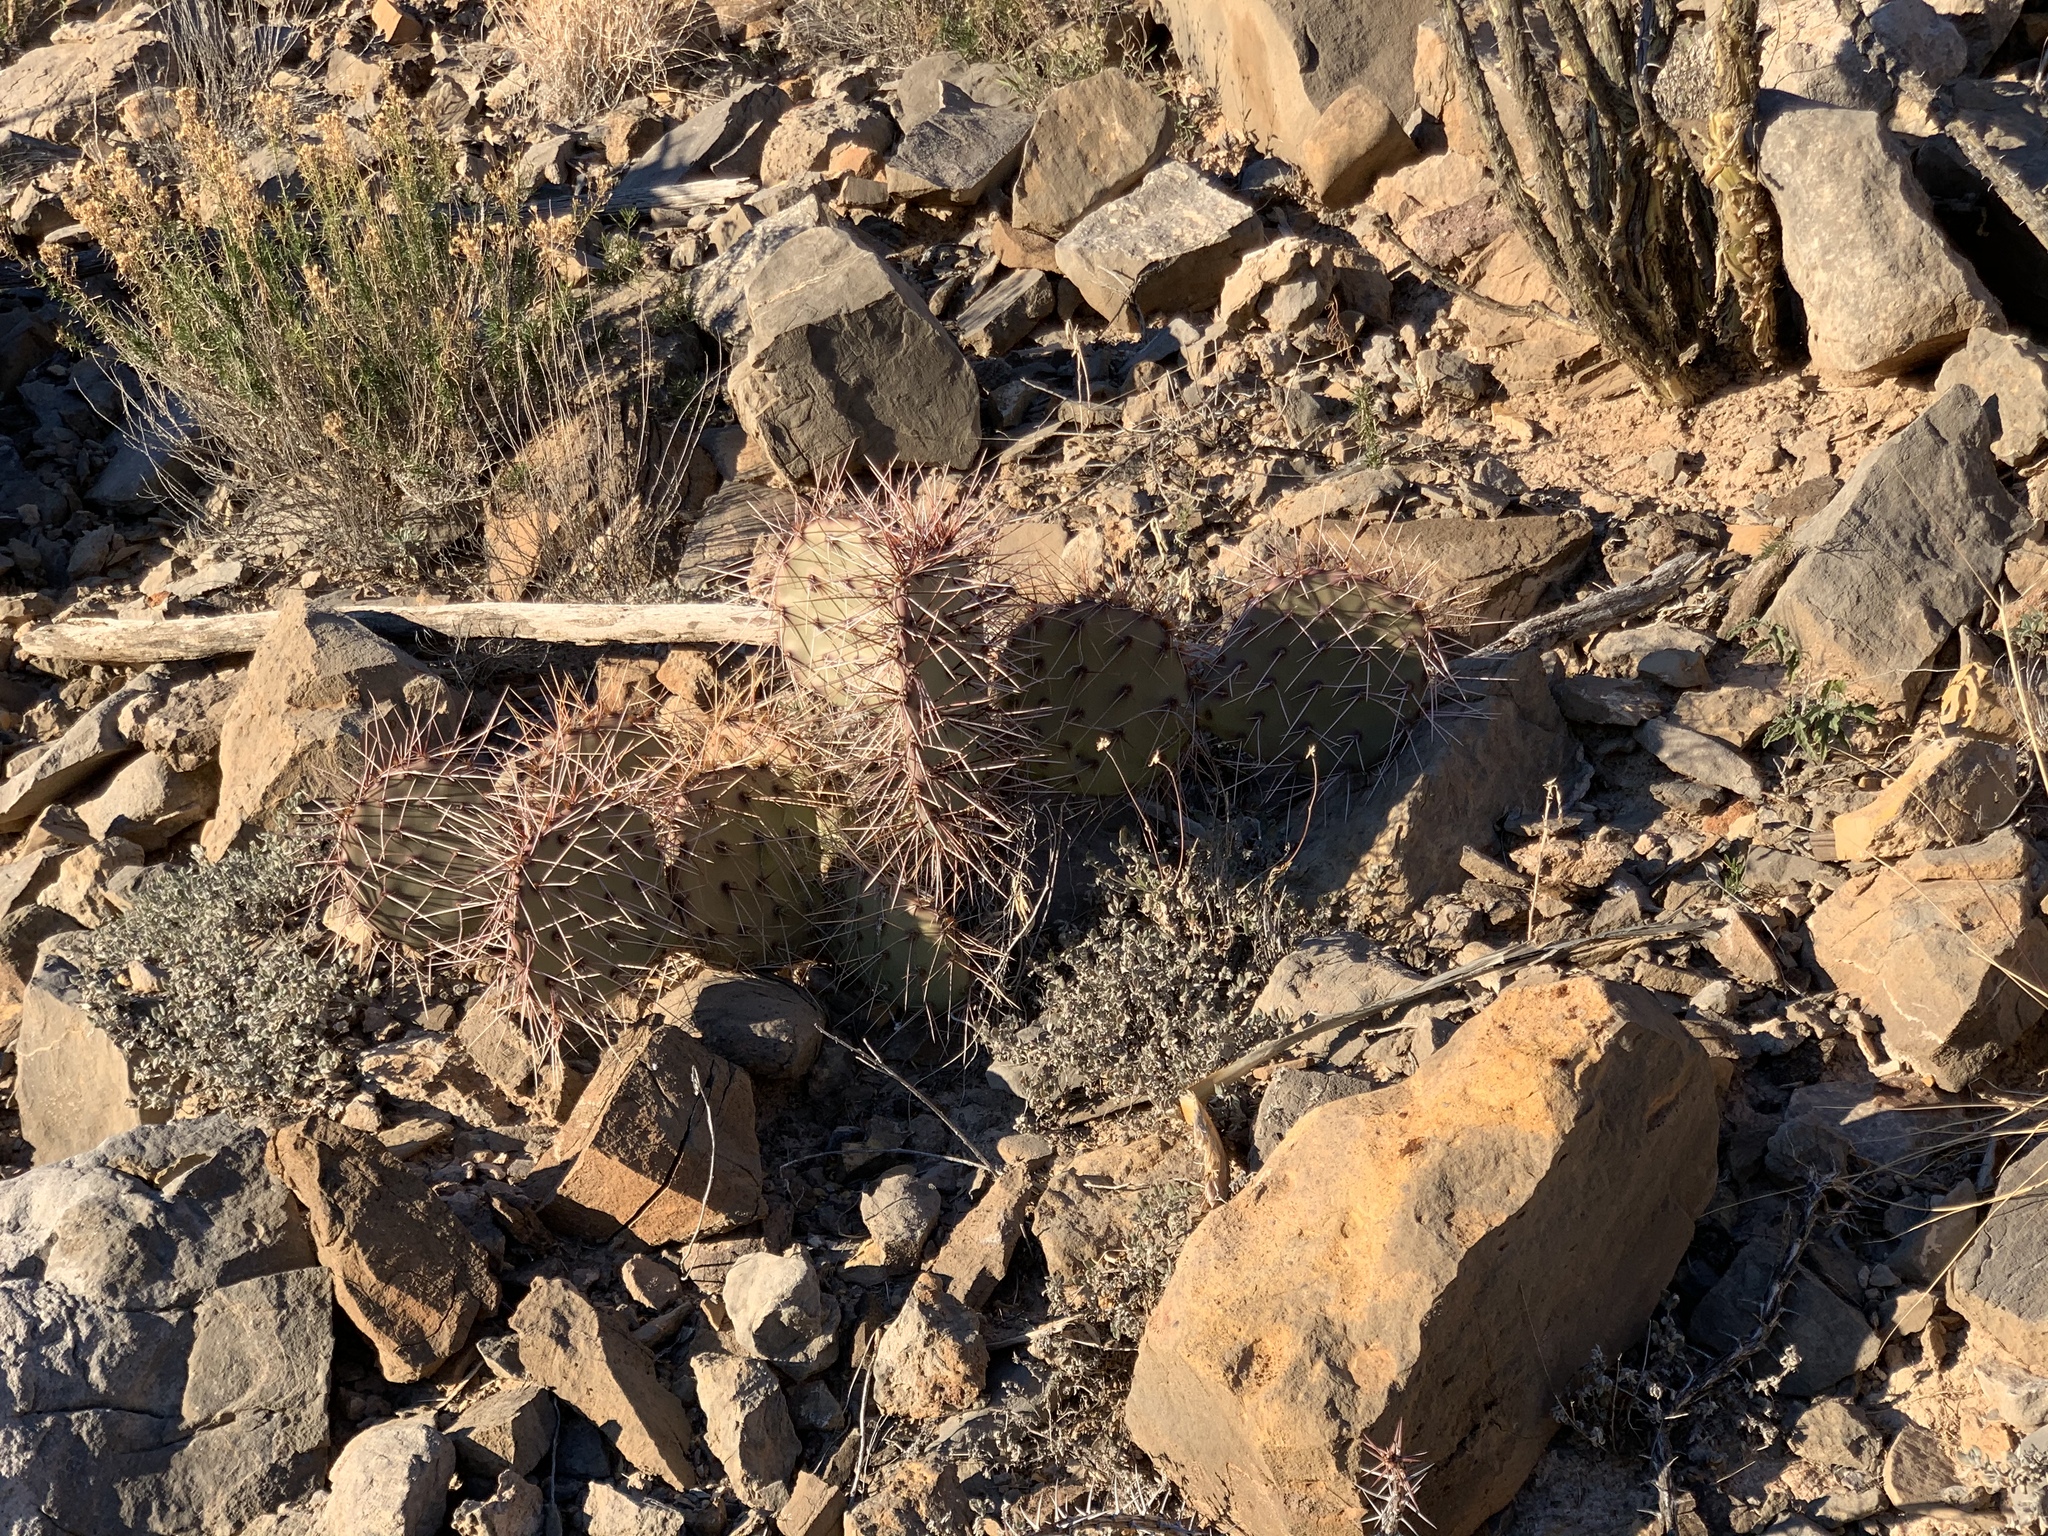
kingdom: Plantae
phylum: Tracheophyta
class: Magnoliopsida
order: Caryophyllales
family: Cactaceae
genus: Opuntia
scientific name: Opuntia macrocentra
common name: Purple prickly-pear
